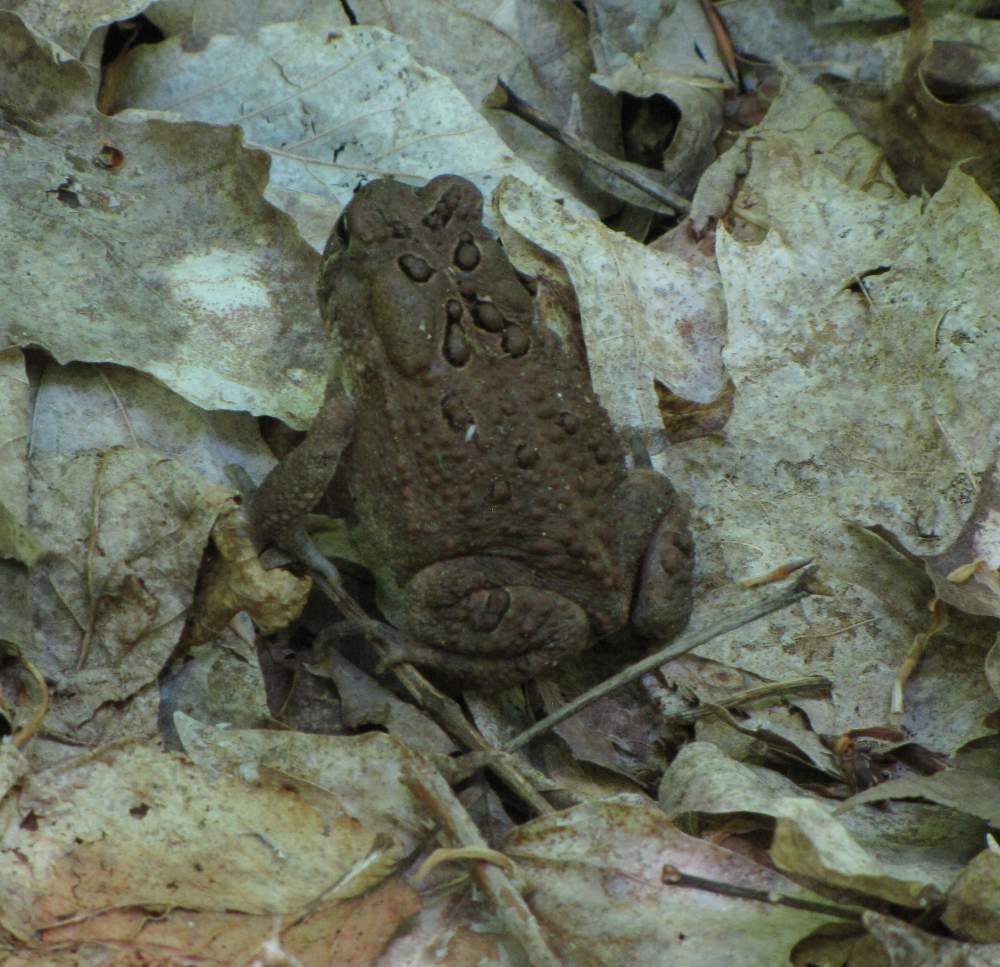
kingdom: Animalia
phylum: Chordata
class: Amphibia
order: Anura
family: Bufonidae
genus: Anaxyrus
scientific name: Anaxyrus americanus
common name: American toad
